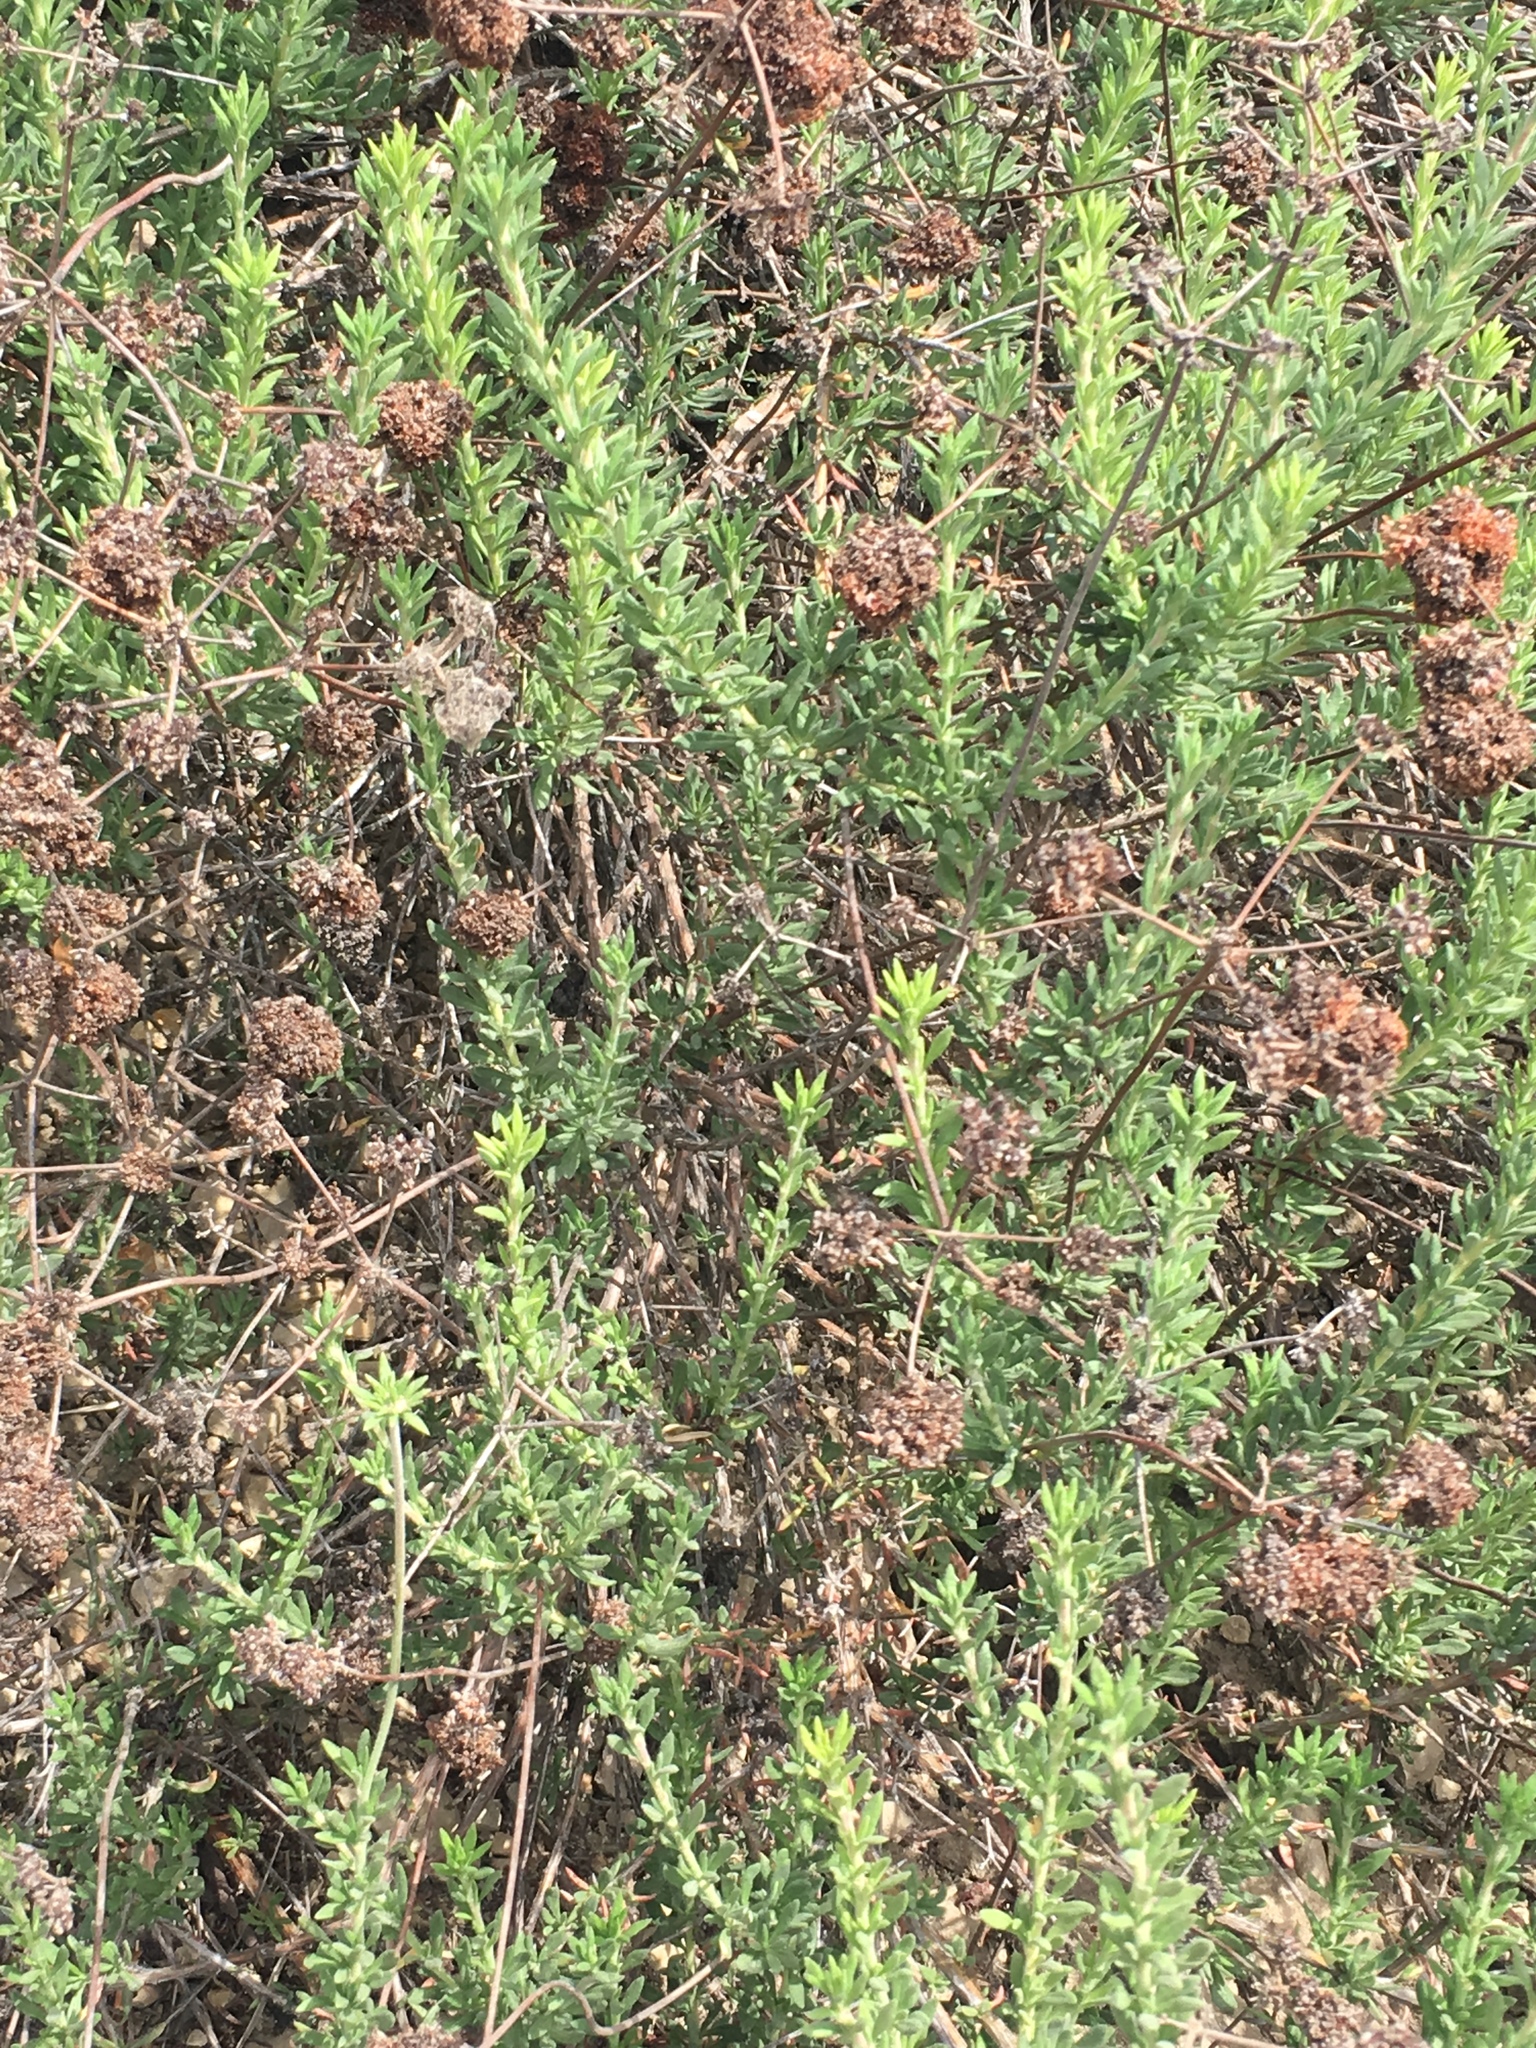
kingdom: Plantae
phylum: Tracheophyta
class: Magnoliopsida
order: Caryophyllales
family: Polygonaceae
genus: Eriogonum
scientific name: Eriogonum fasciculatum
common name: California wild buckwheat
